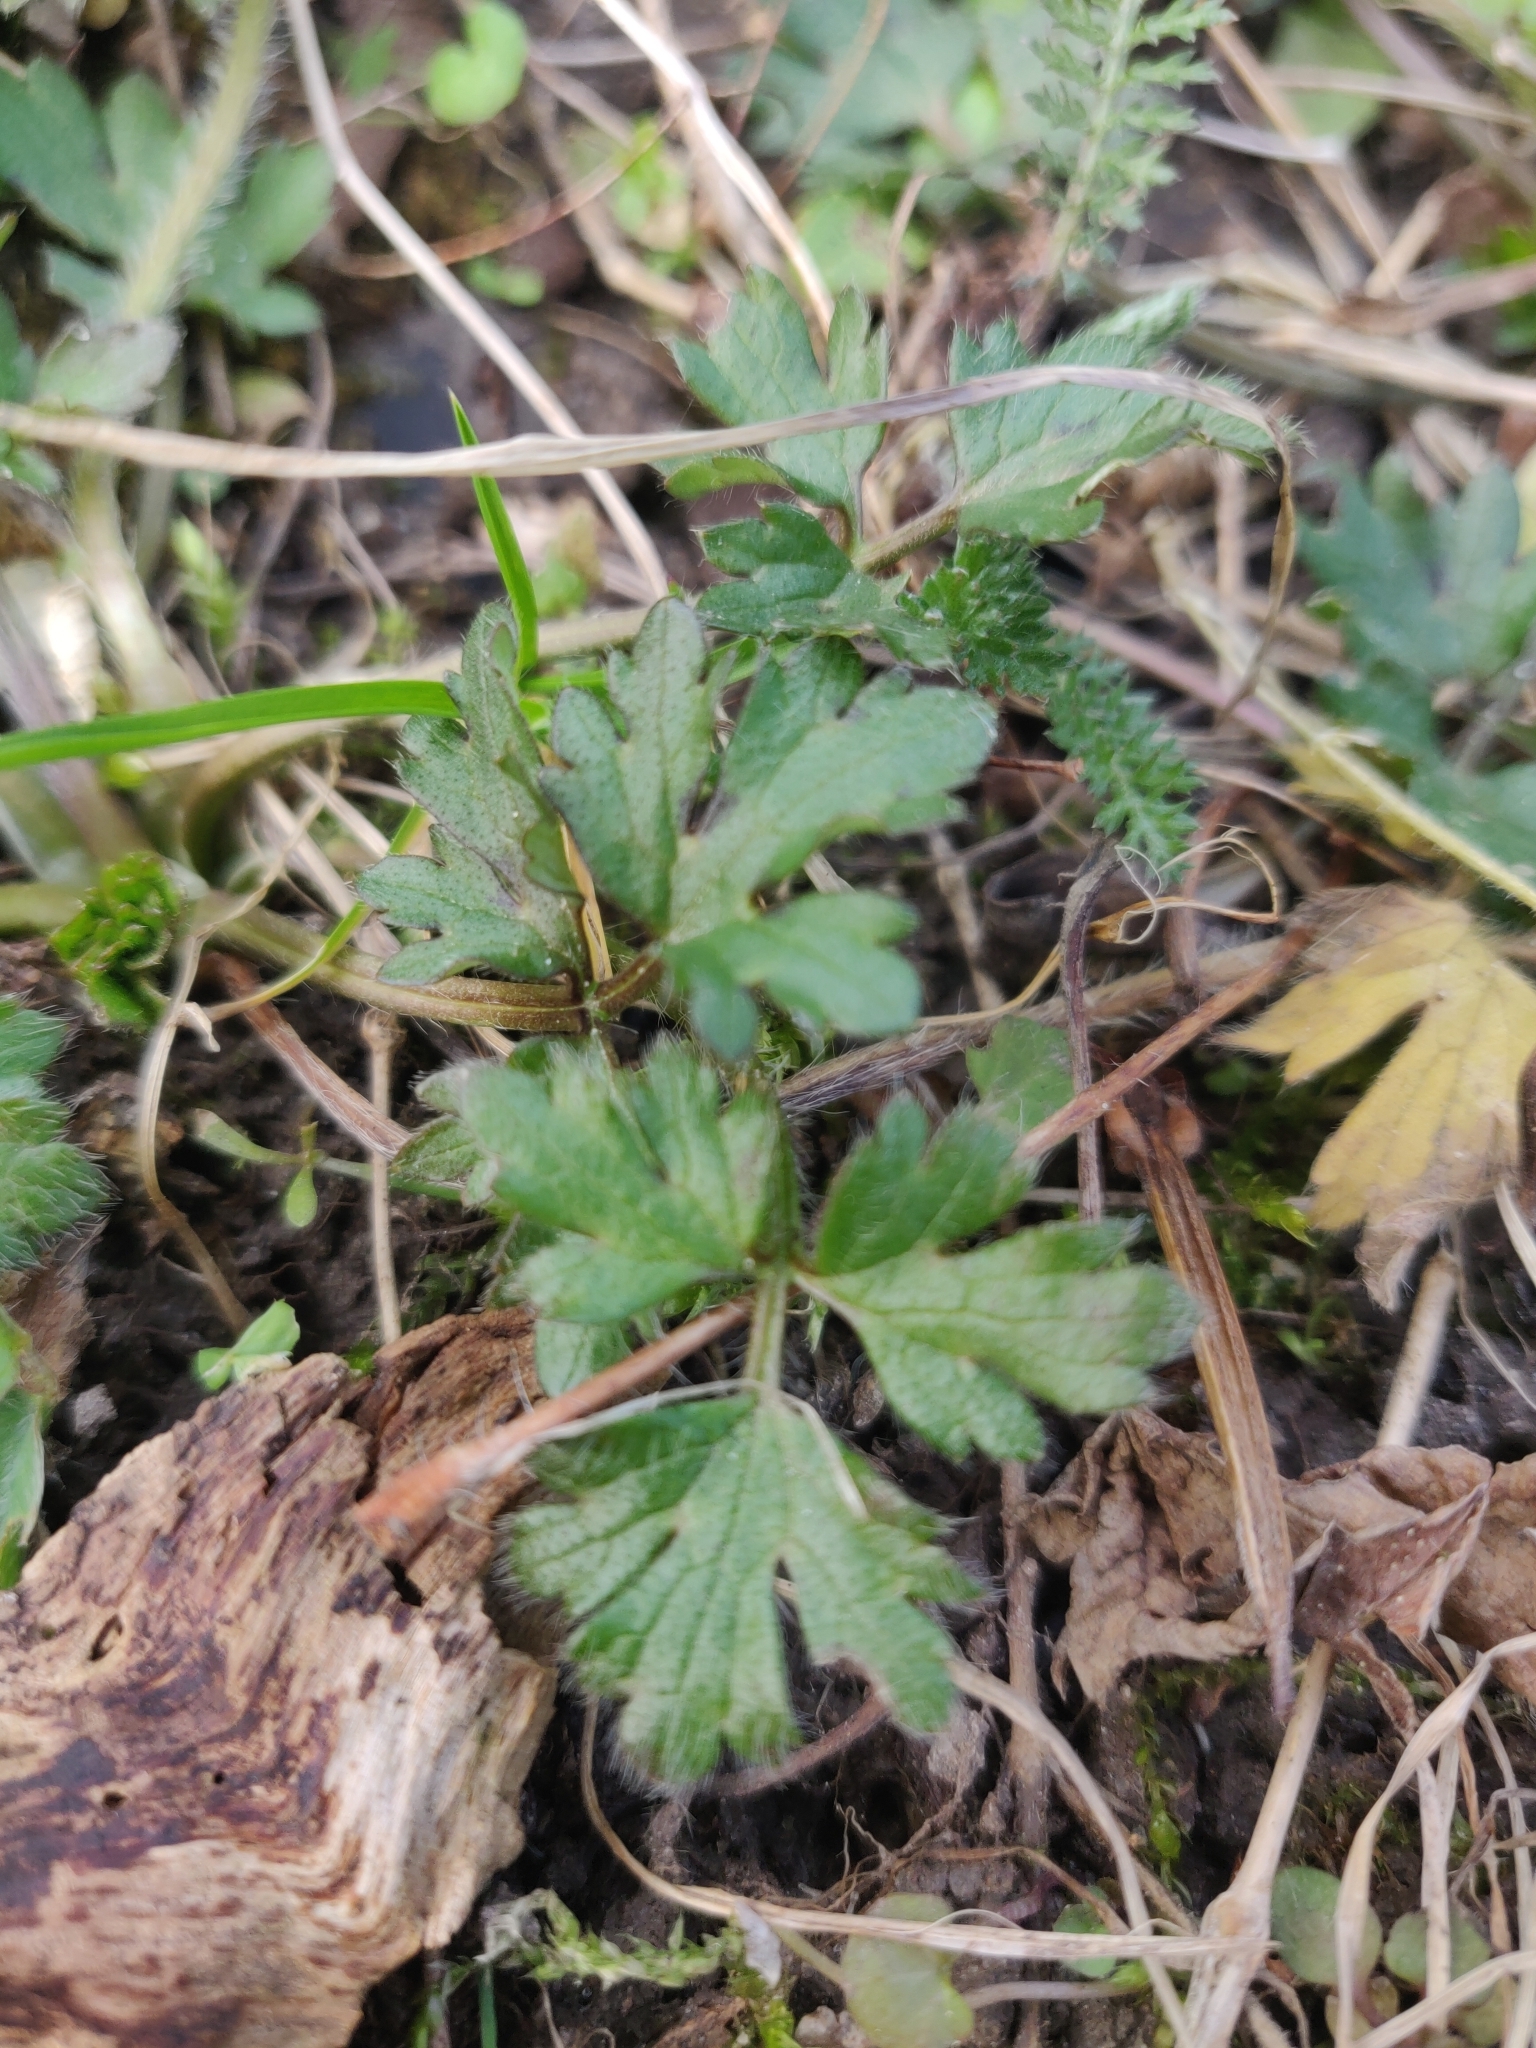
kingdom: Plantae
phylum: Tracheophyta
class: Magnoliopsida
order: Ranunculales
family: Ranunculaceae
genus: Ranunculus
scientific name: Ranunculus repens
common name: Creeping buttercup
